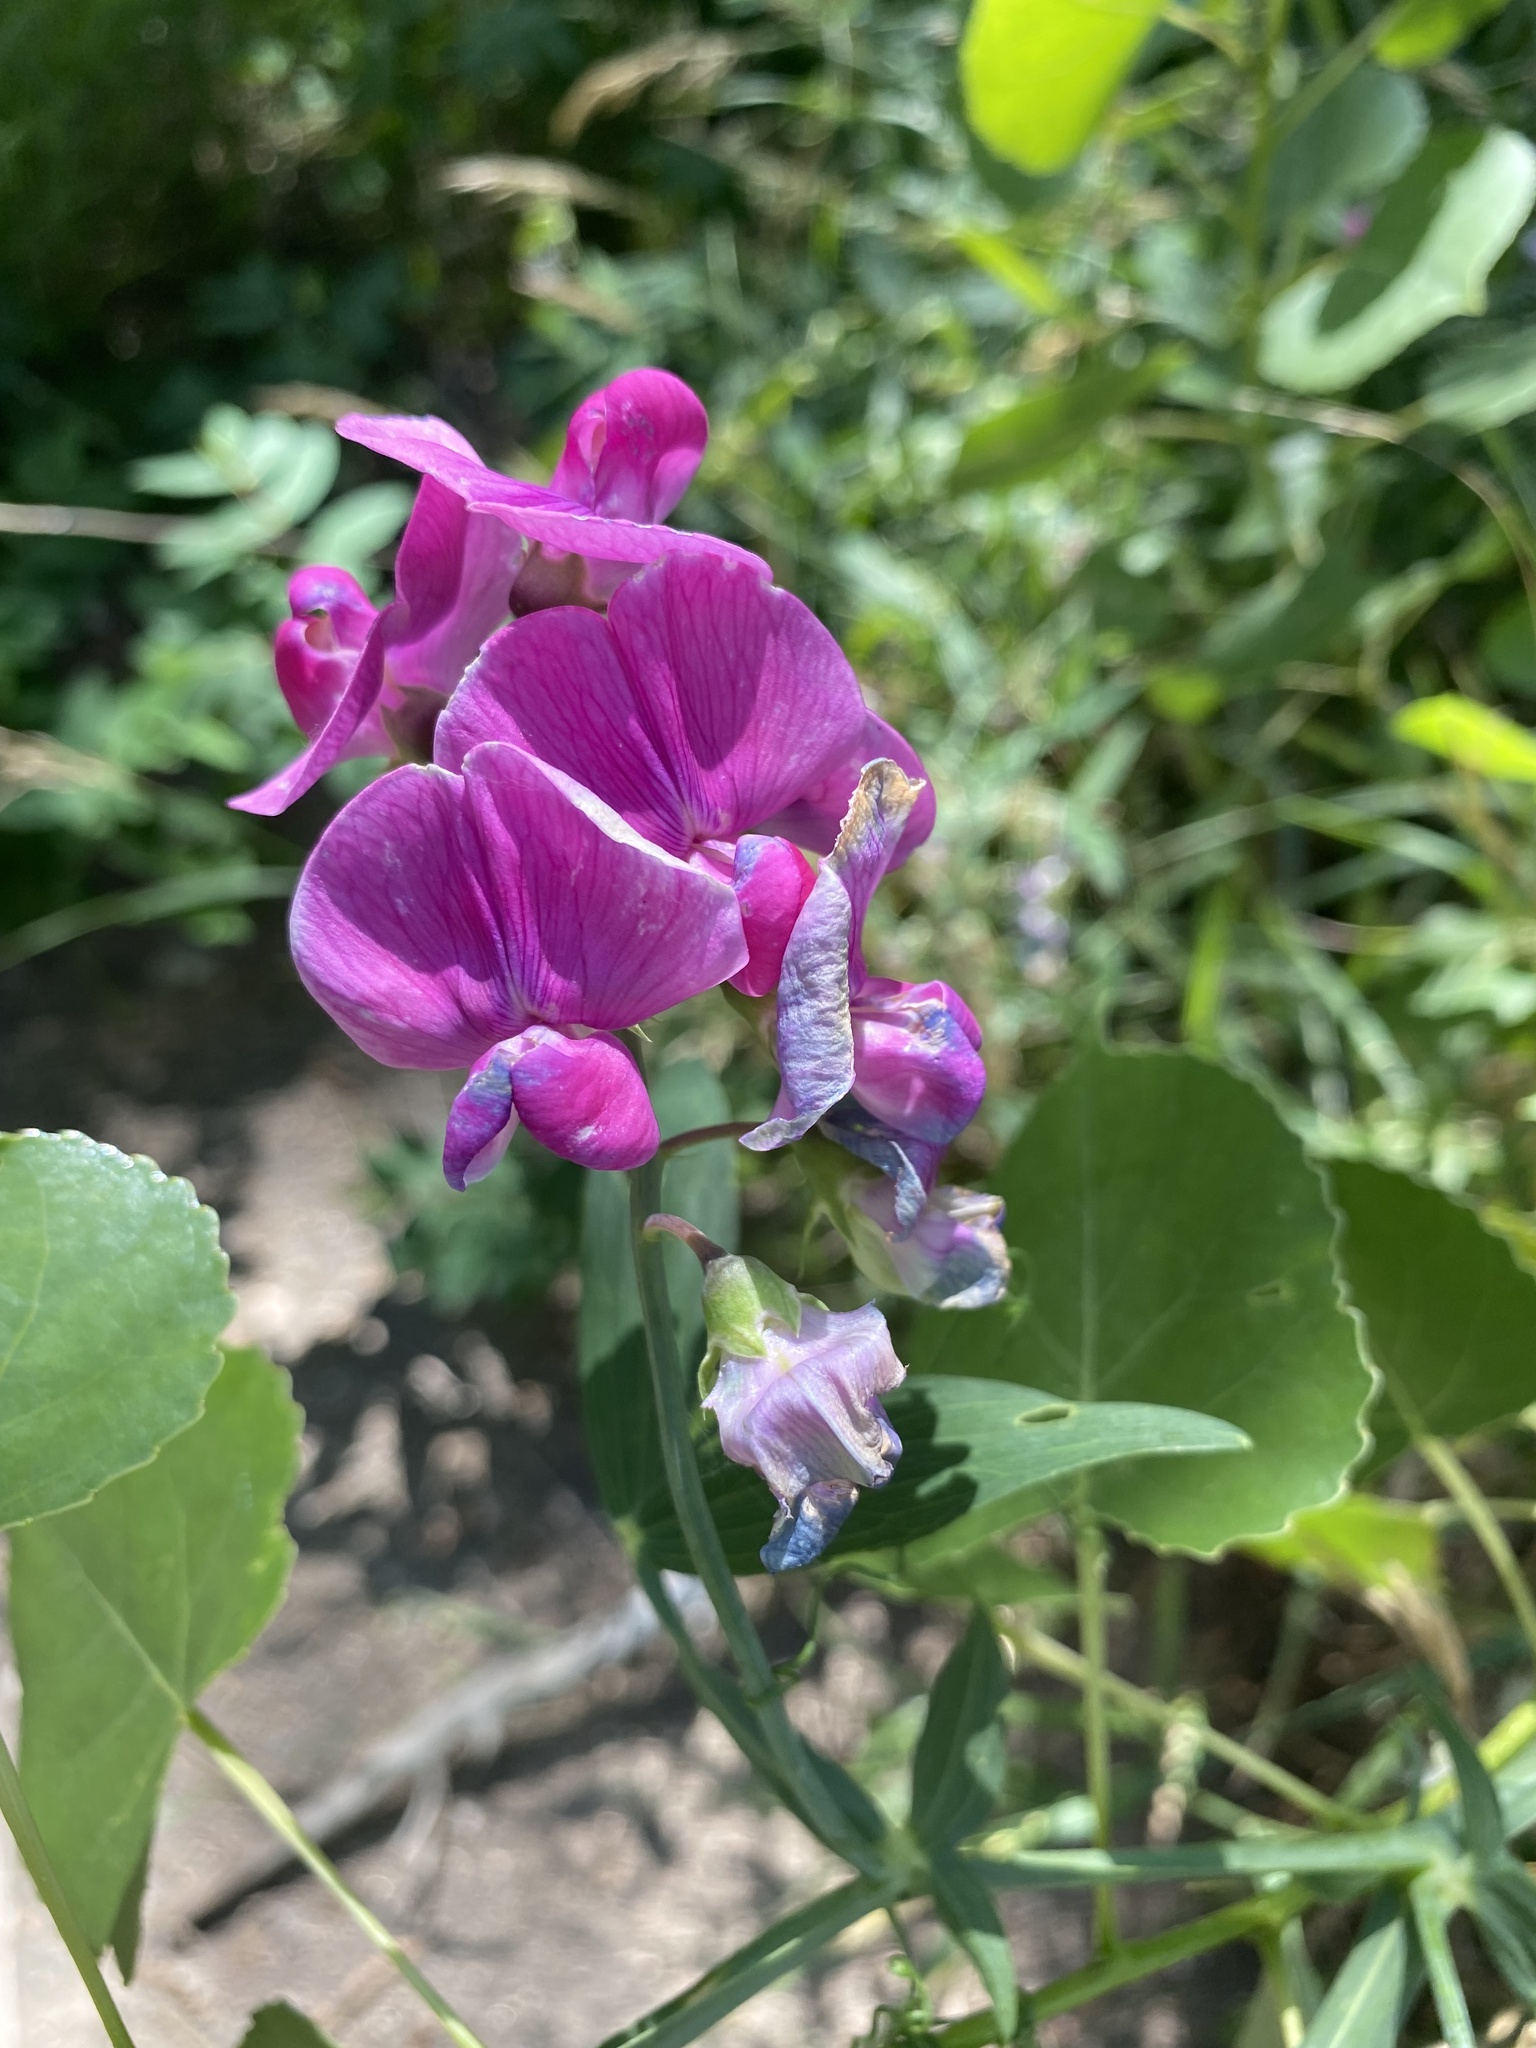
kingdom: Plantae
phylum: Tracheophyta
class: Magnoliopsida
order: Fabales
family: Fabaceae
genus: Lathyrus
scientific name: Lathyrus latifolius
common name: Perennial pea
